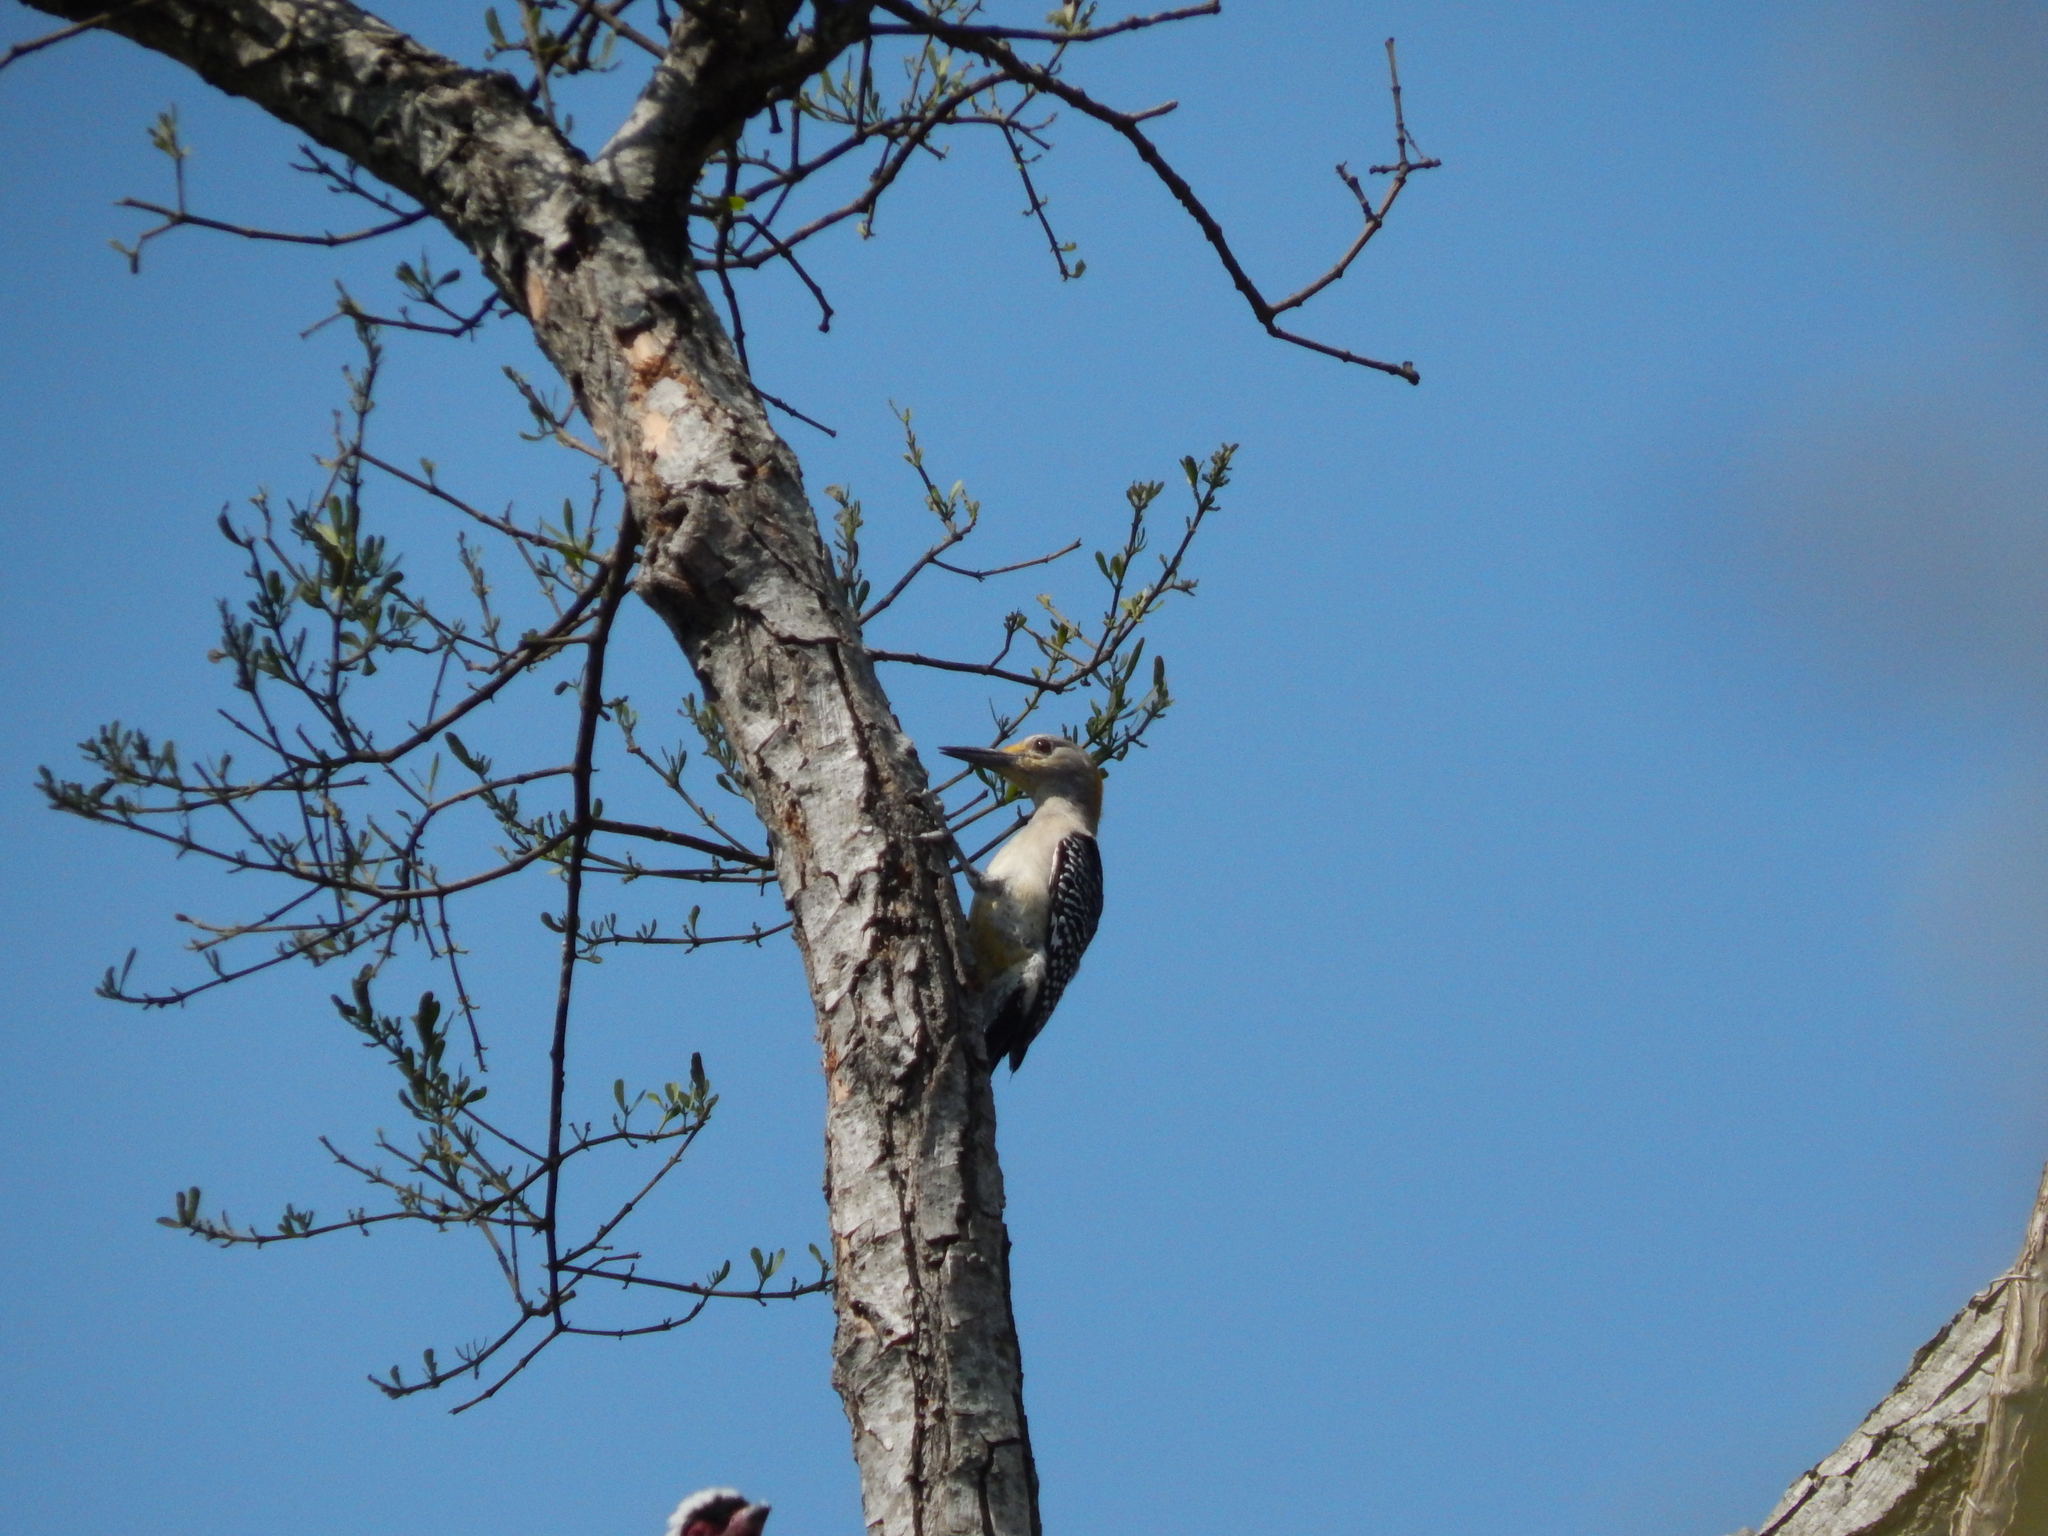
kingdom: Animalia
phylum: Chordata
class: Aves
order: Piciformes
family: Picidae
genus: Melanerpes
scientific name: Melanerpes aurifrons
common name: Golden-fronted woodpecker
